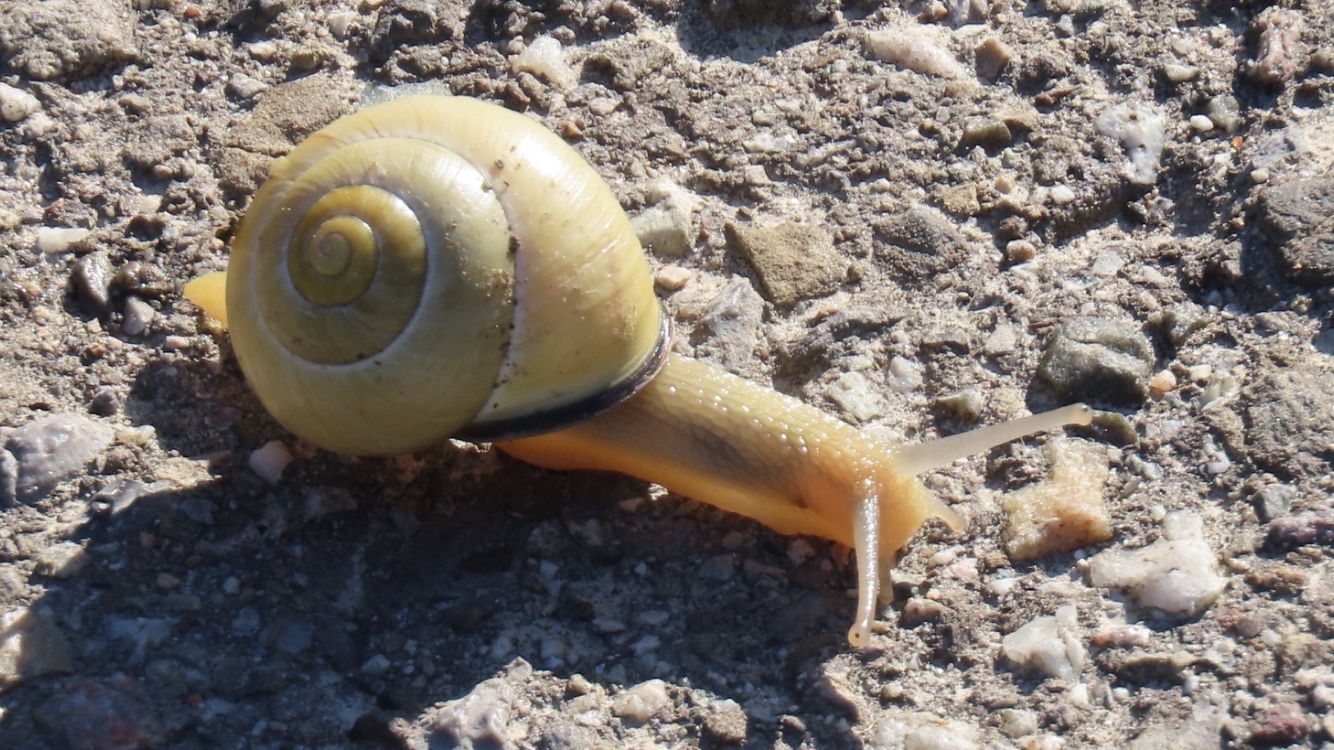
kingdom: Animalia
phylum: Mollusca
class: Gastropoda
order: Stylommatophora
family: Helicidae
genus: Cepaea
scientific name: Cepaea nemoralis
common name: Grovesnail
